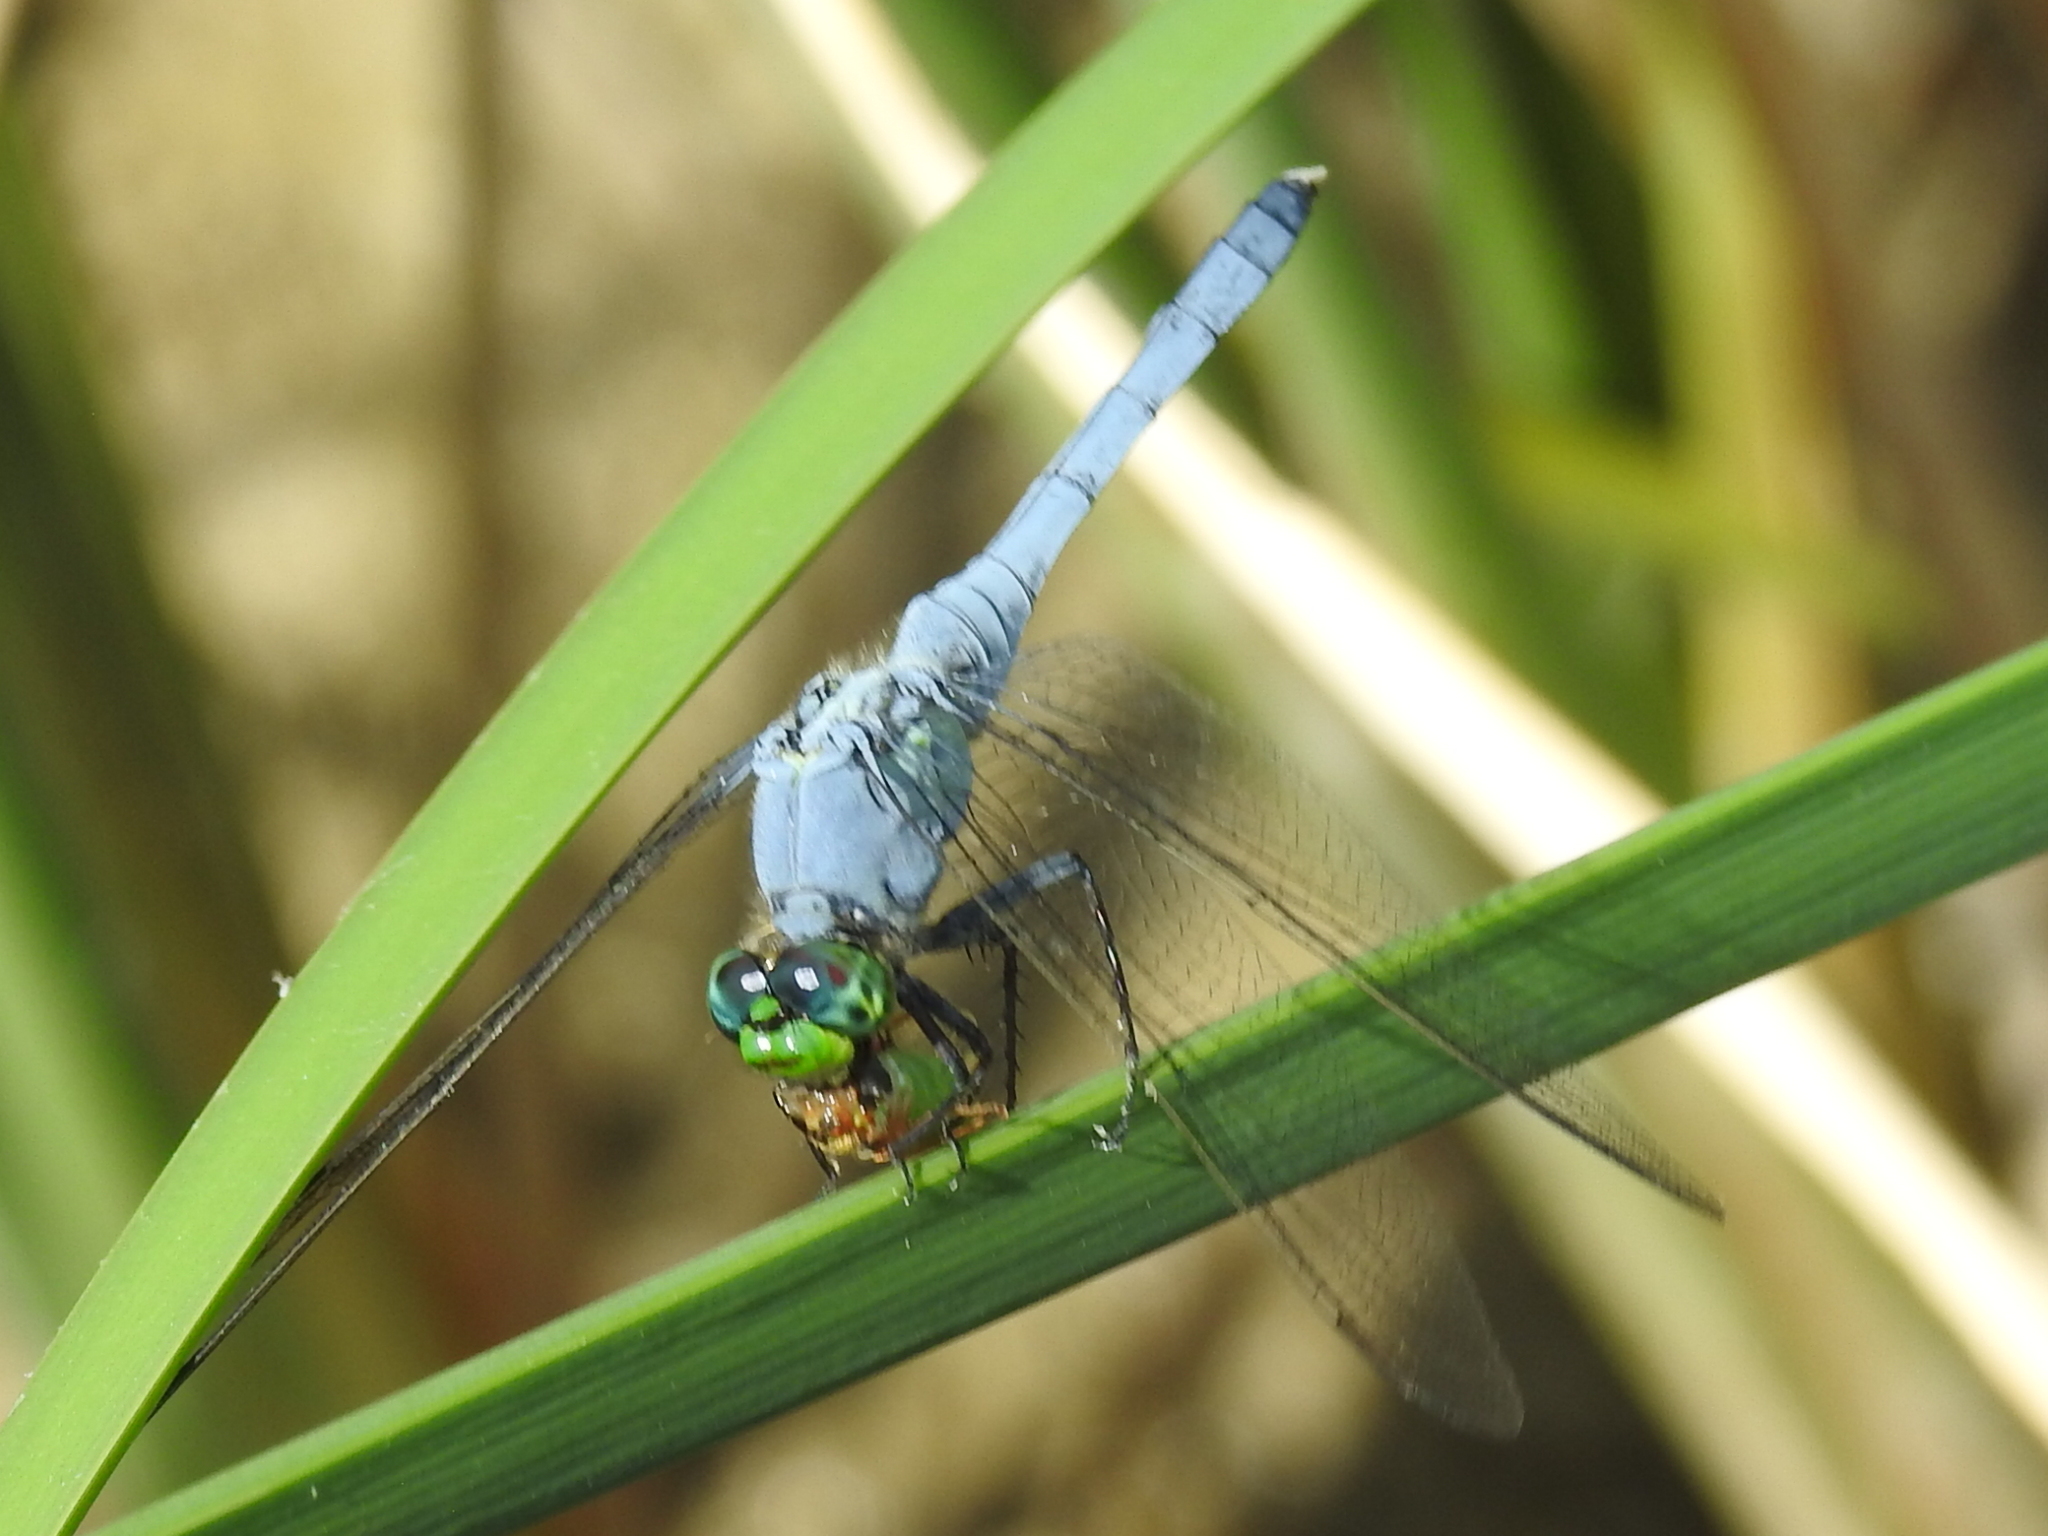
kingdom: Animalia
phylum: Arthropoda
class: Insecta
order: Odonata
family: Libellulidae
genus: Erythemis
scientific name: Erythemis simplicicollis
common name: Eastern pondhawk
